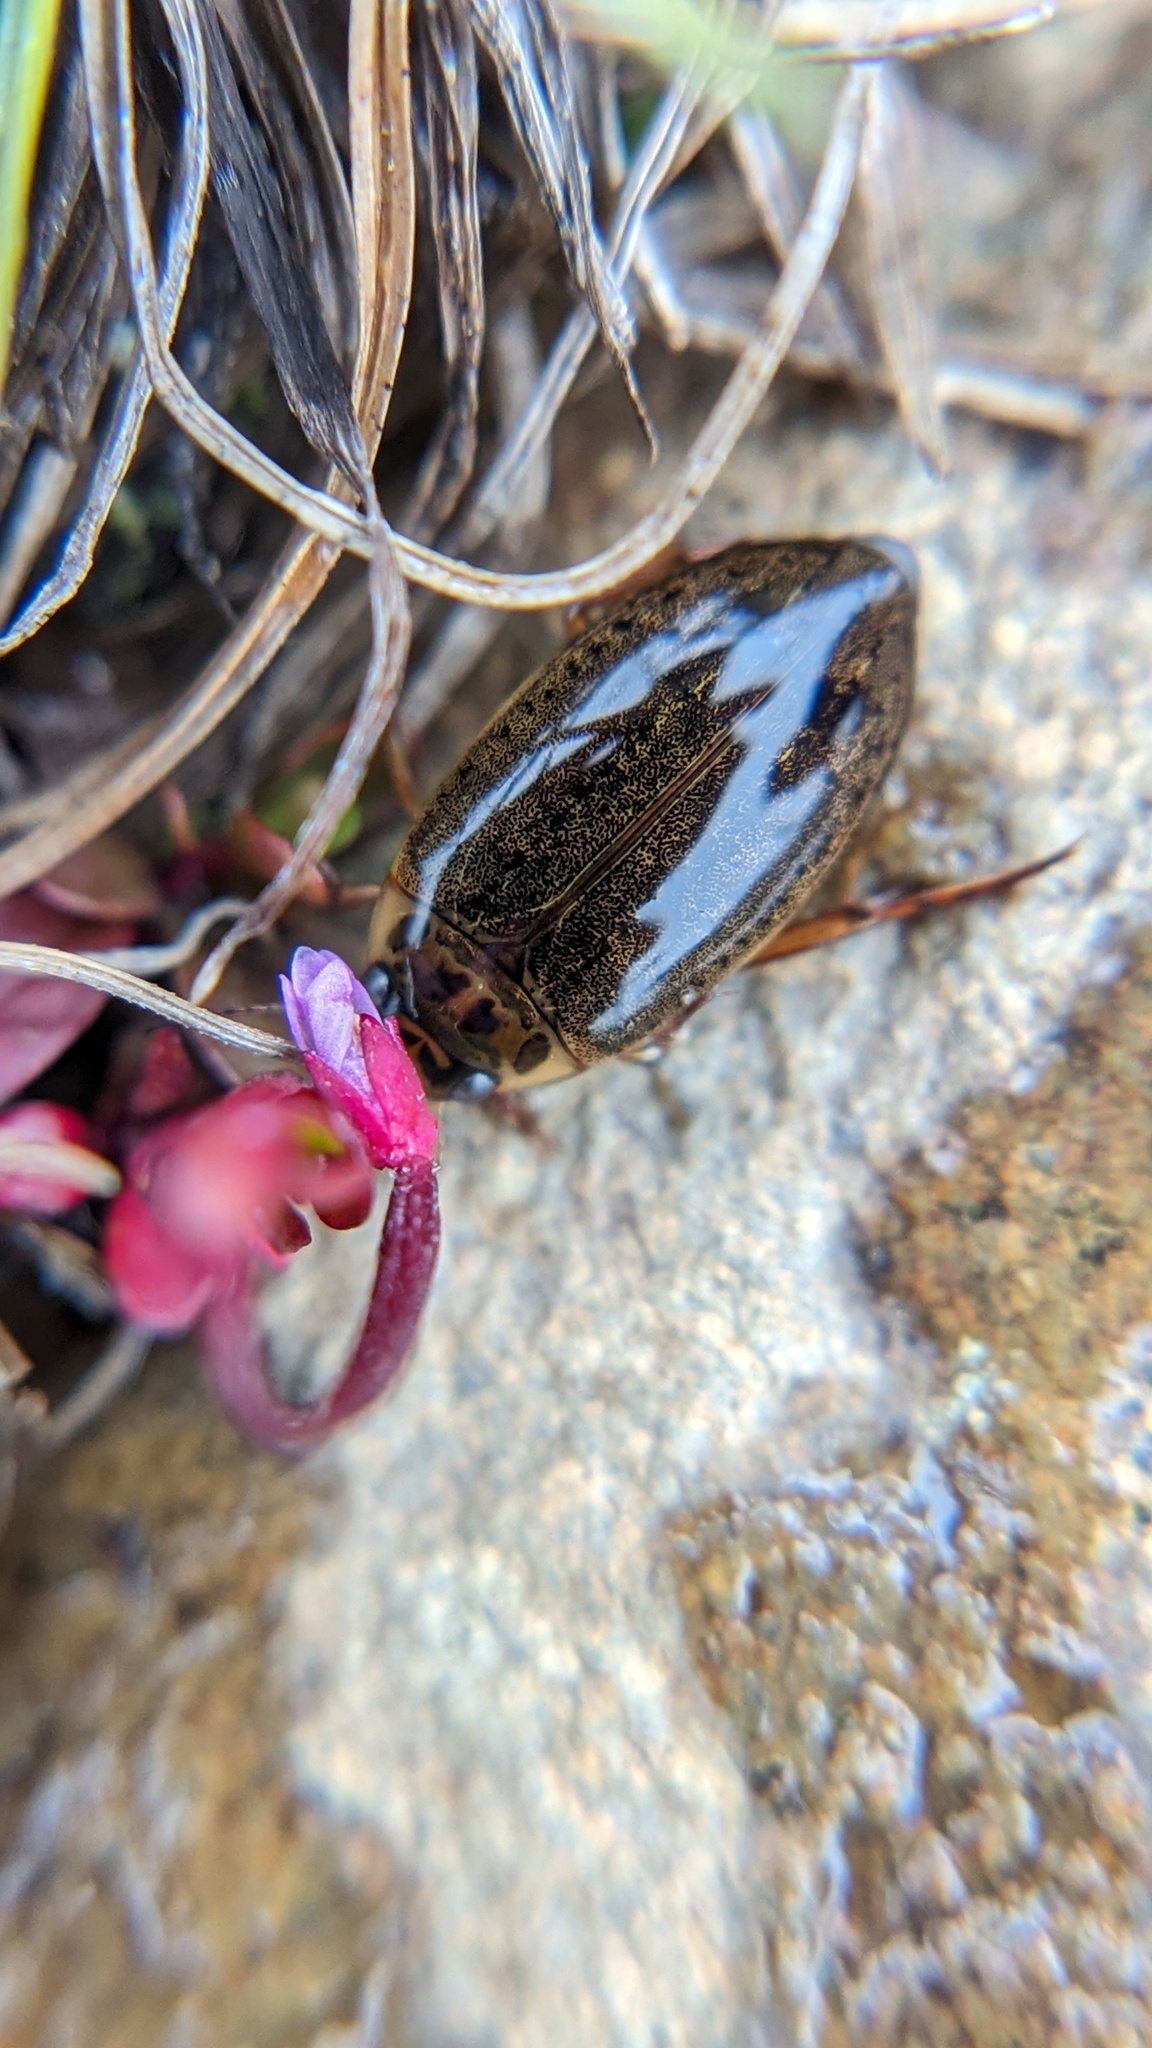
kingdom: Animalia
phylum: Arthropoda
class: Insecta
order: Coleoptera
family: Dytiscidae
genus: Rhantus
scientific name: Rhantus binotatus
